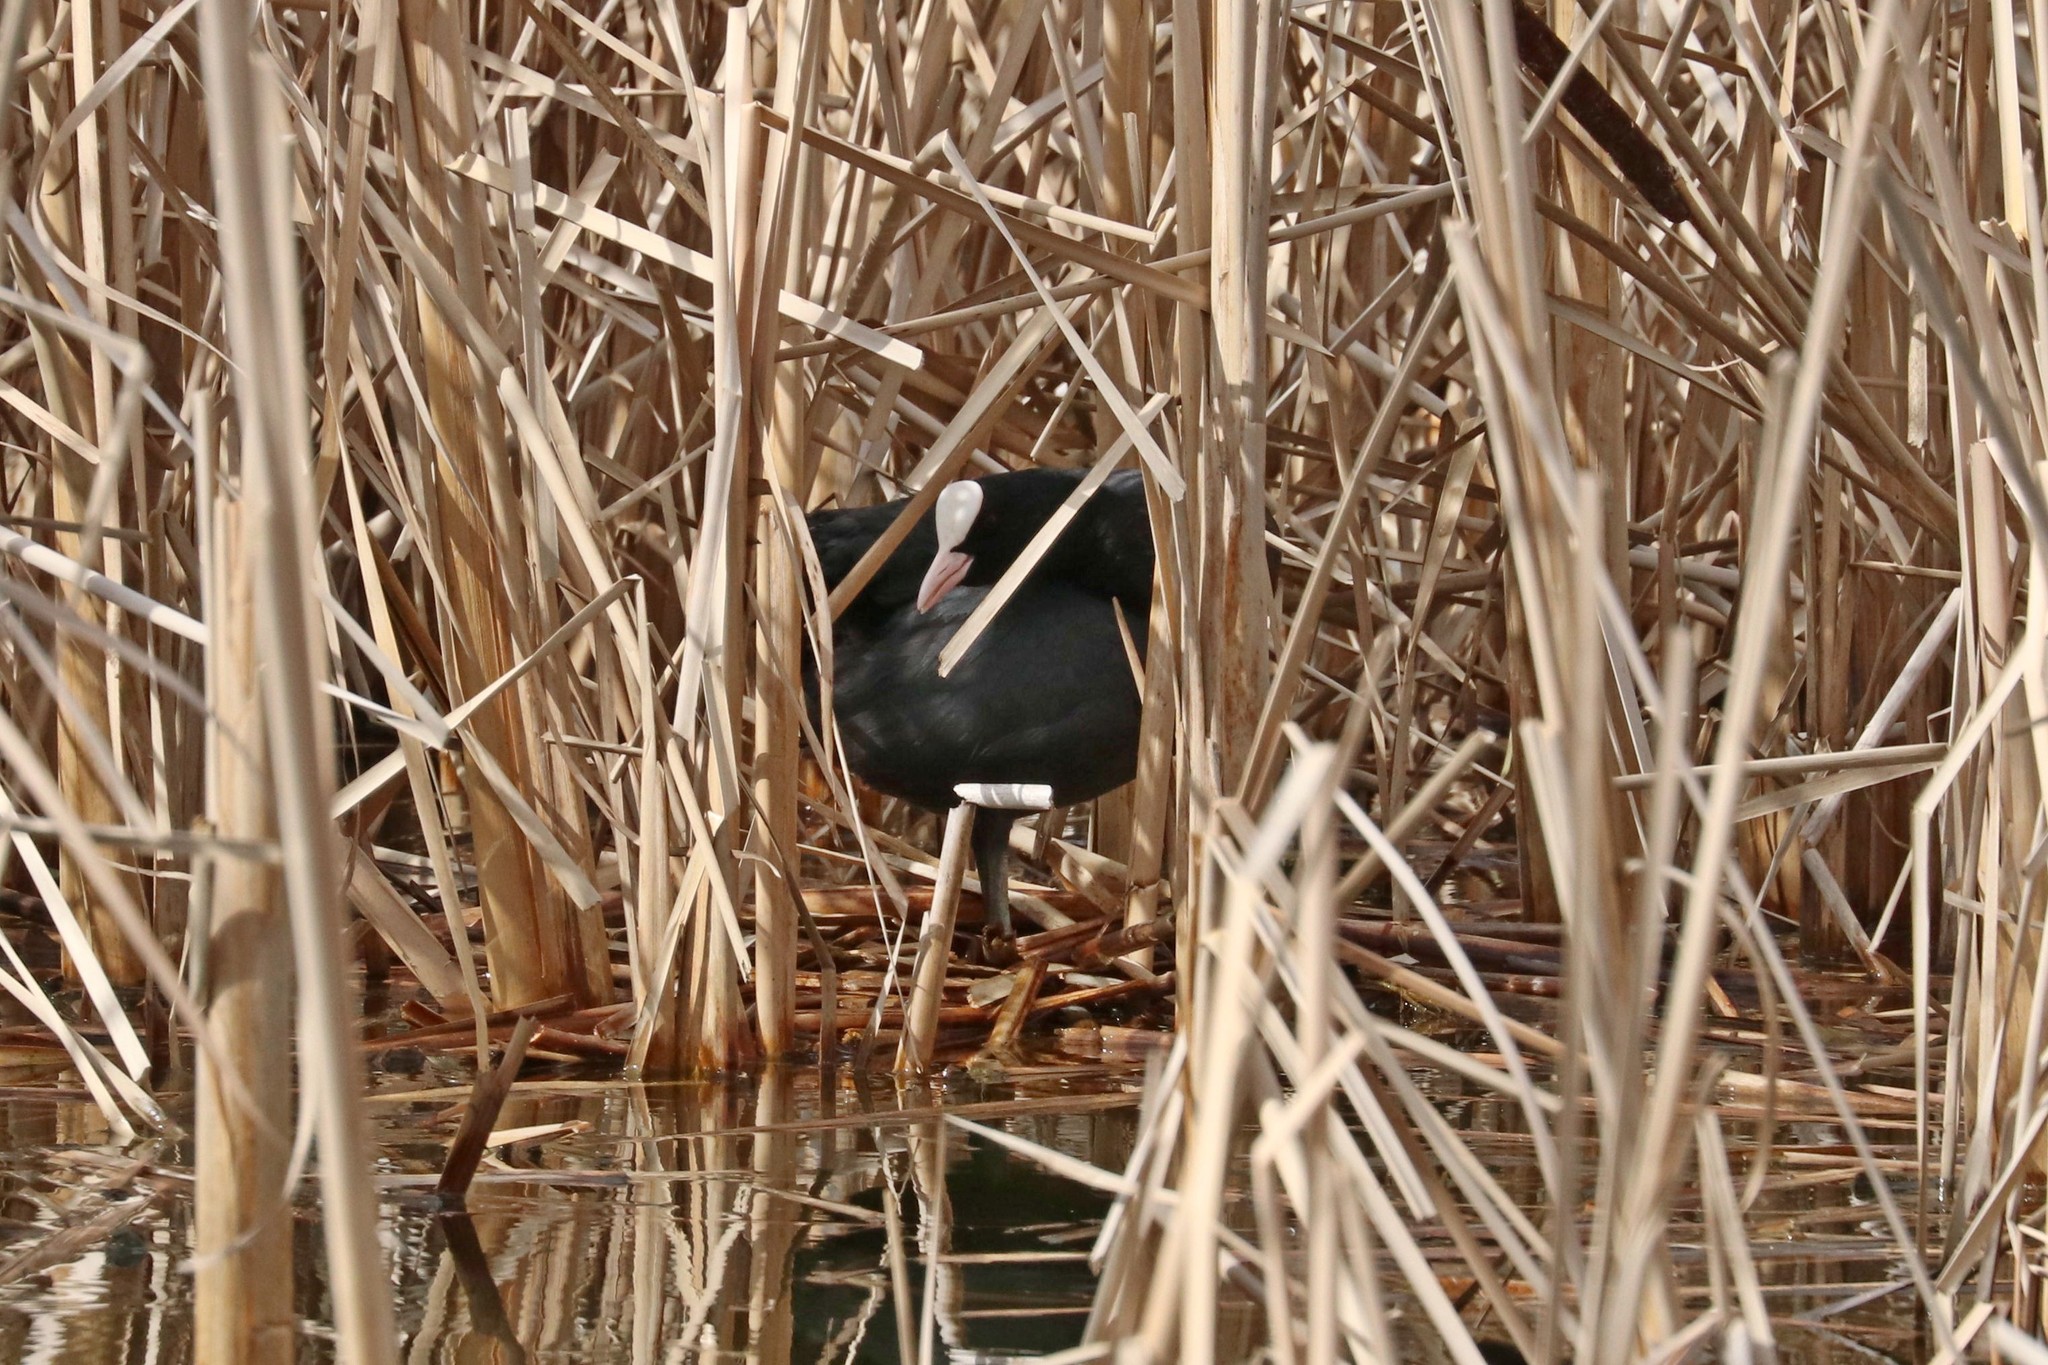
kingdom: Animalia
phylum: Chordata
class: Aves
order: Gruiformes
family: Rallidae
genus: Fulica
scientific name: Fulica atra
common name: Eurasian coot
